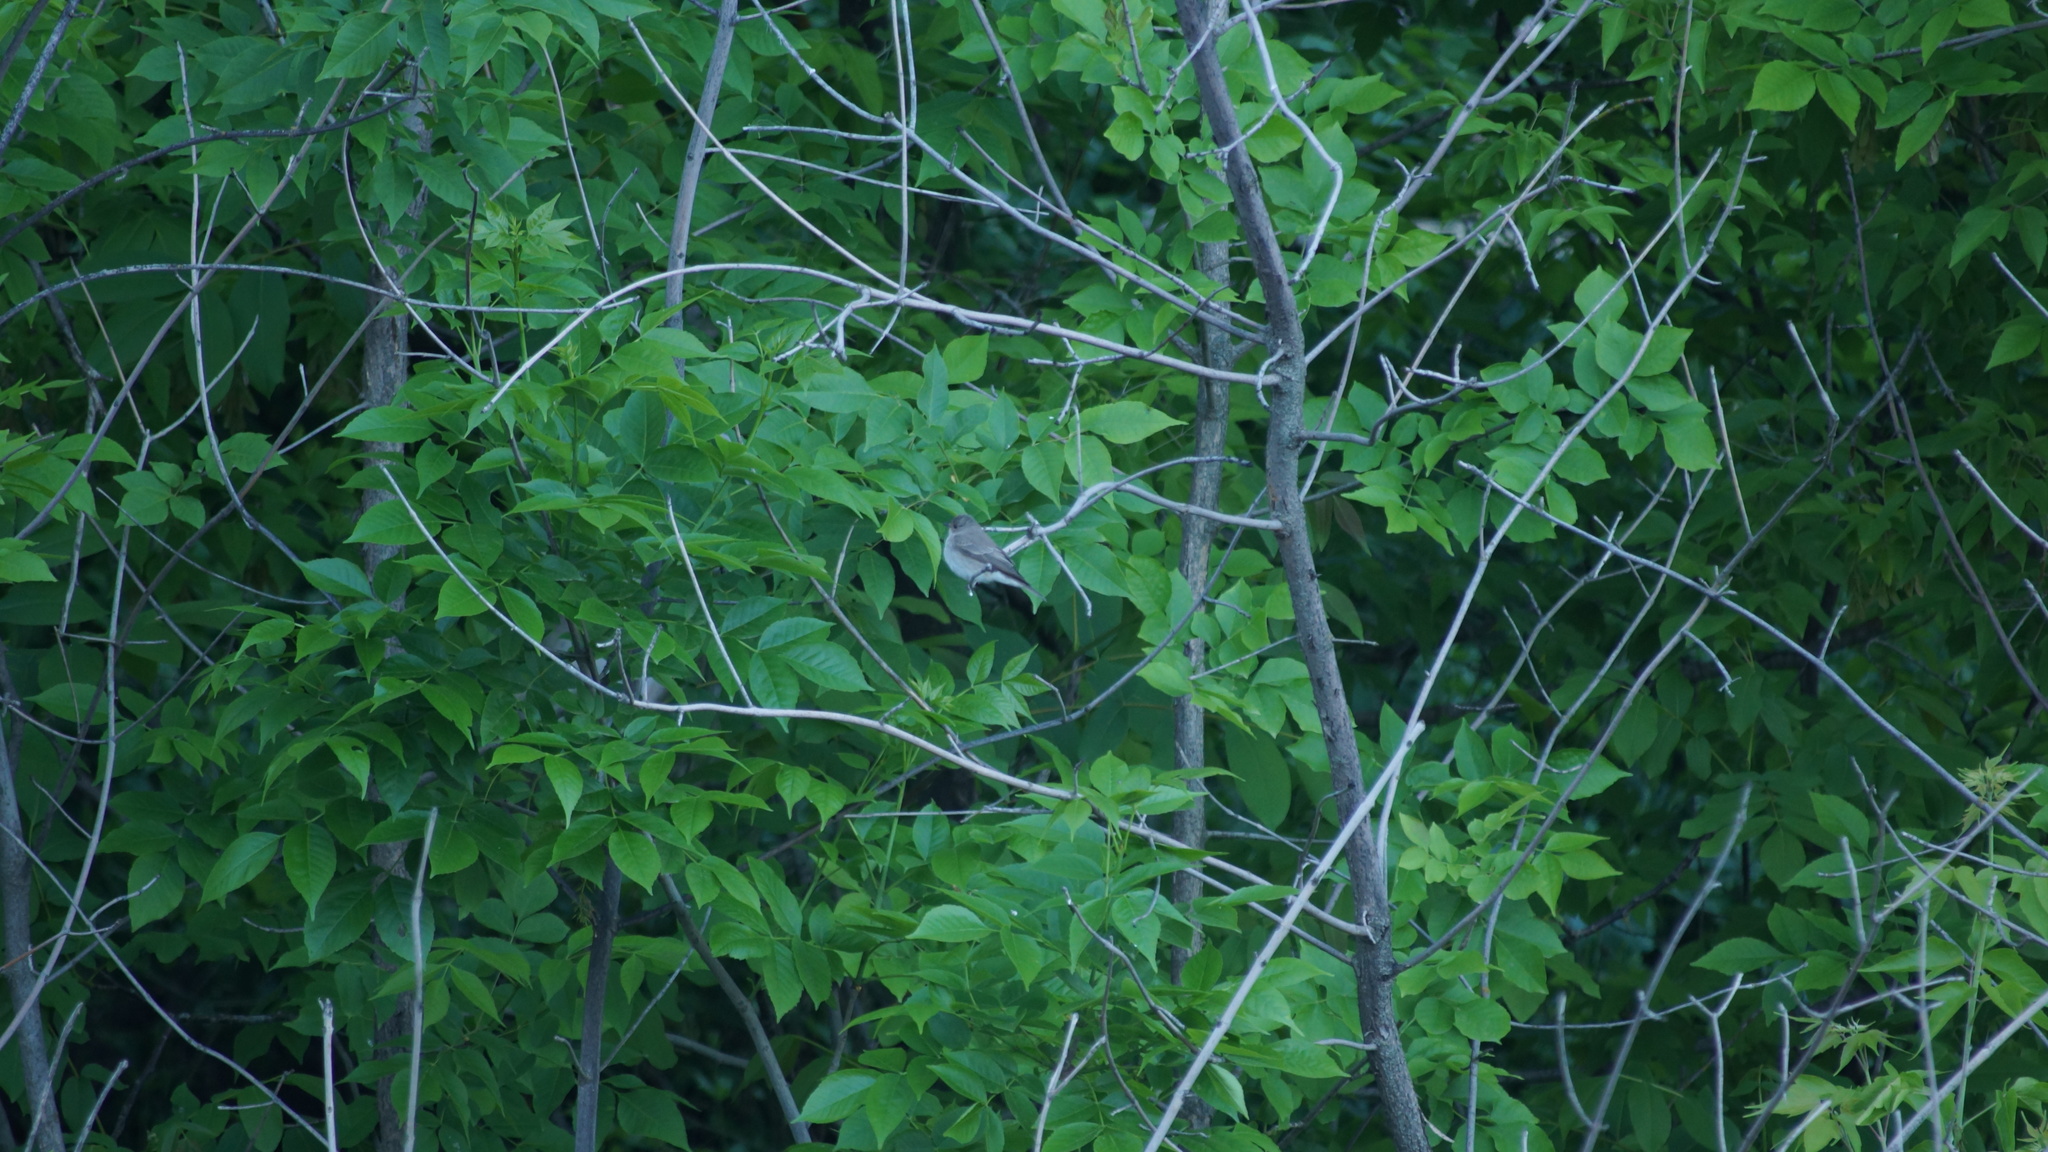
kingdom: Animalia
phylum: Chordata
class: Aves
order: Passeriformes
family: Muscicapidae
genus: Muscicapa
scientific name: Muscicapa striata
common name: Spotted flycatcher
